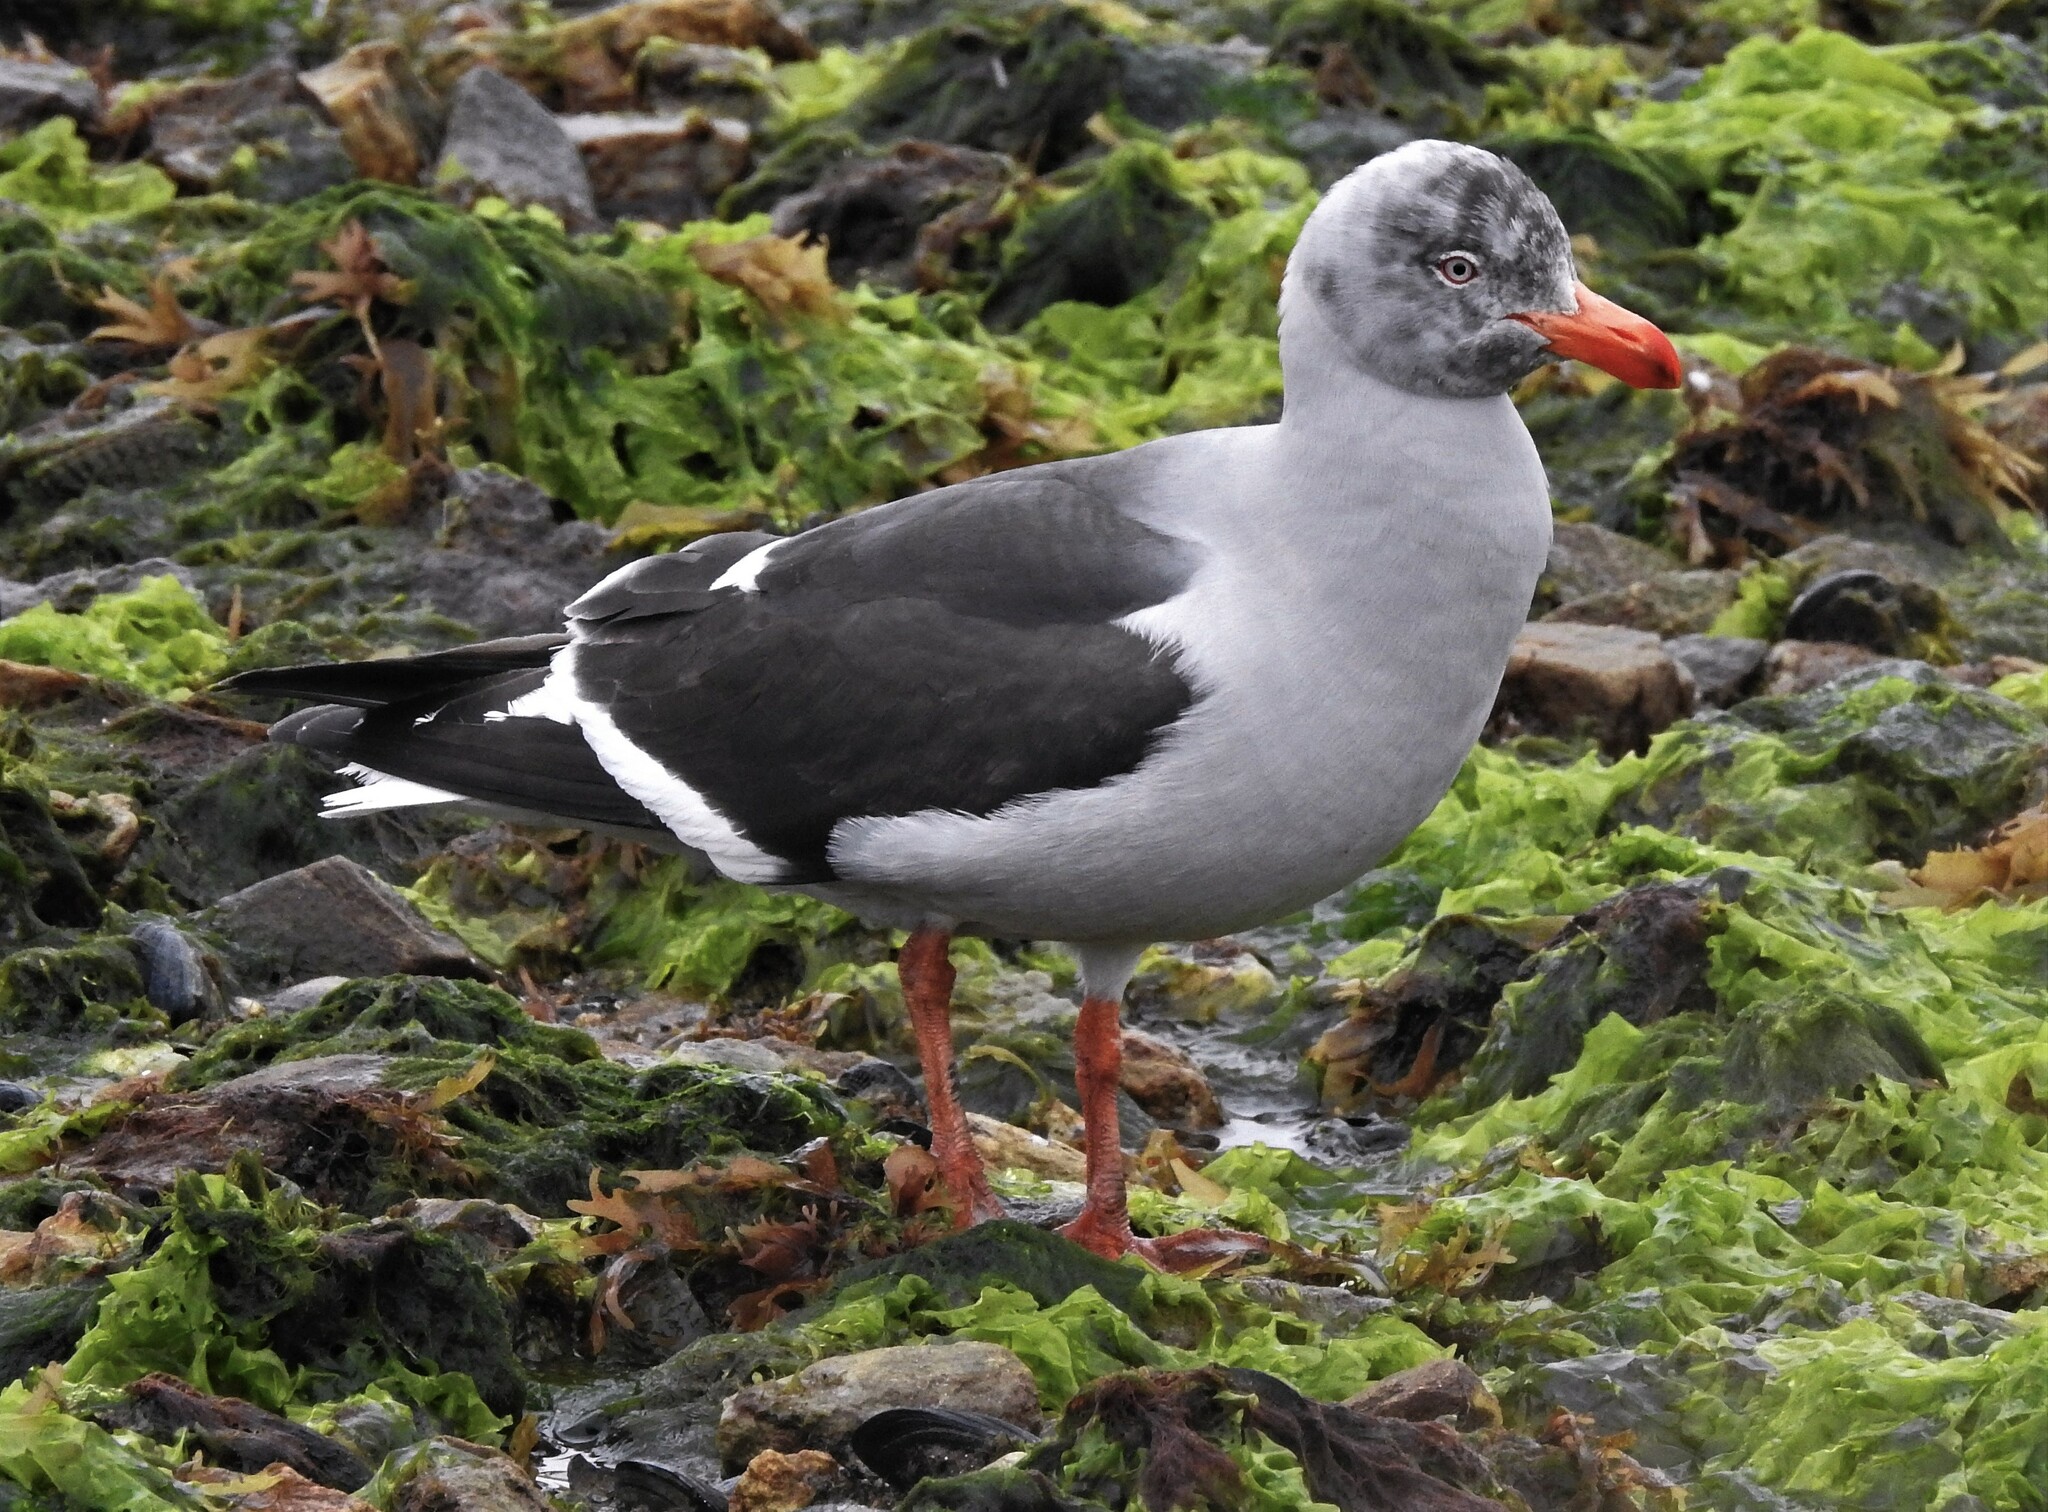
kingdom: Animalia
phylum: Chordata
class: Aves
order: Charadriiformes
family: Laridae
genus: Leucophaeus
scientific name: Leucophaeus scoresbii
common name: Dolphin gull
